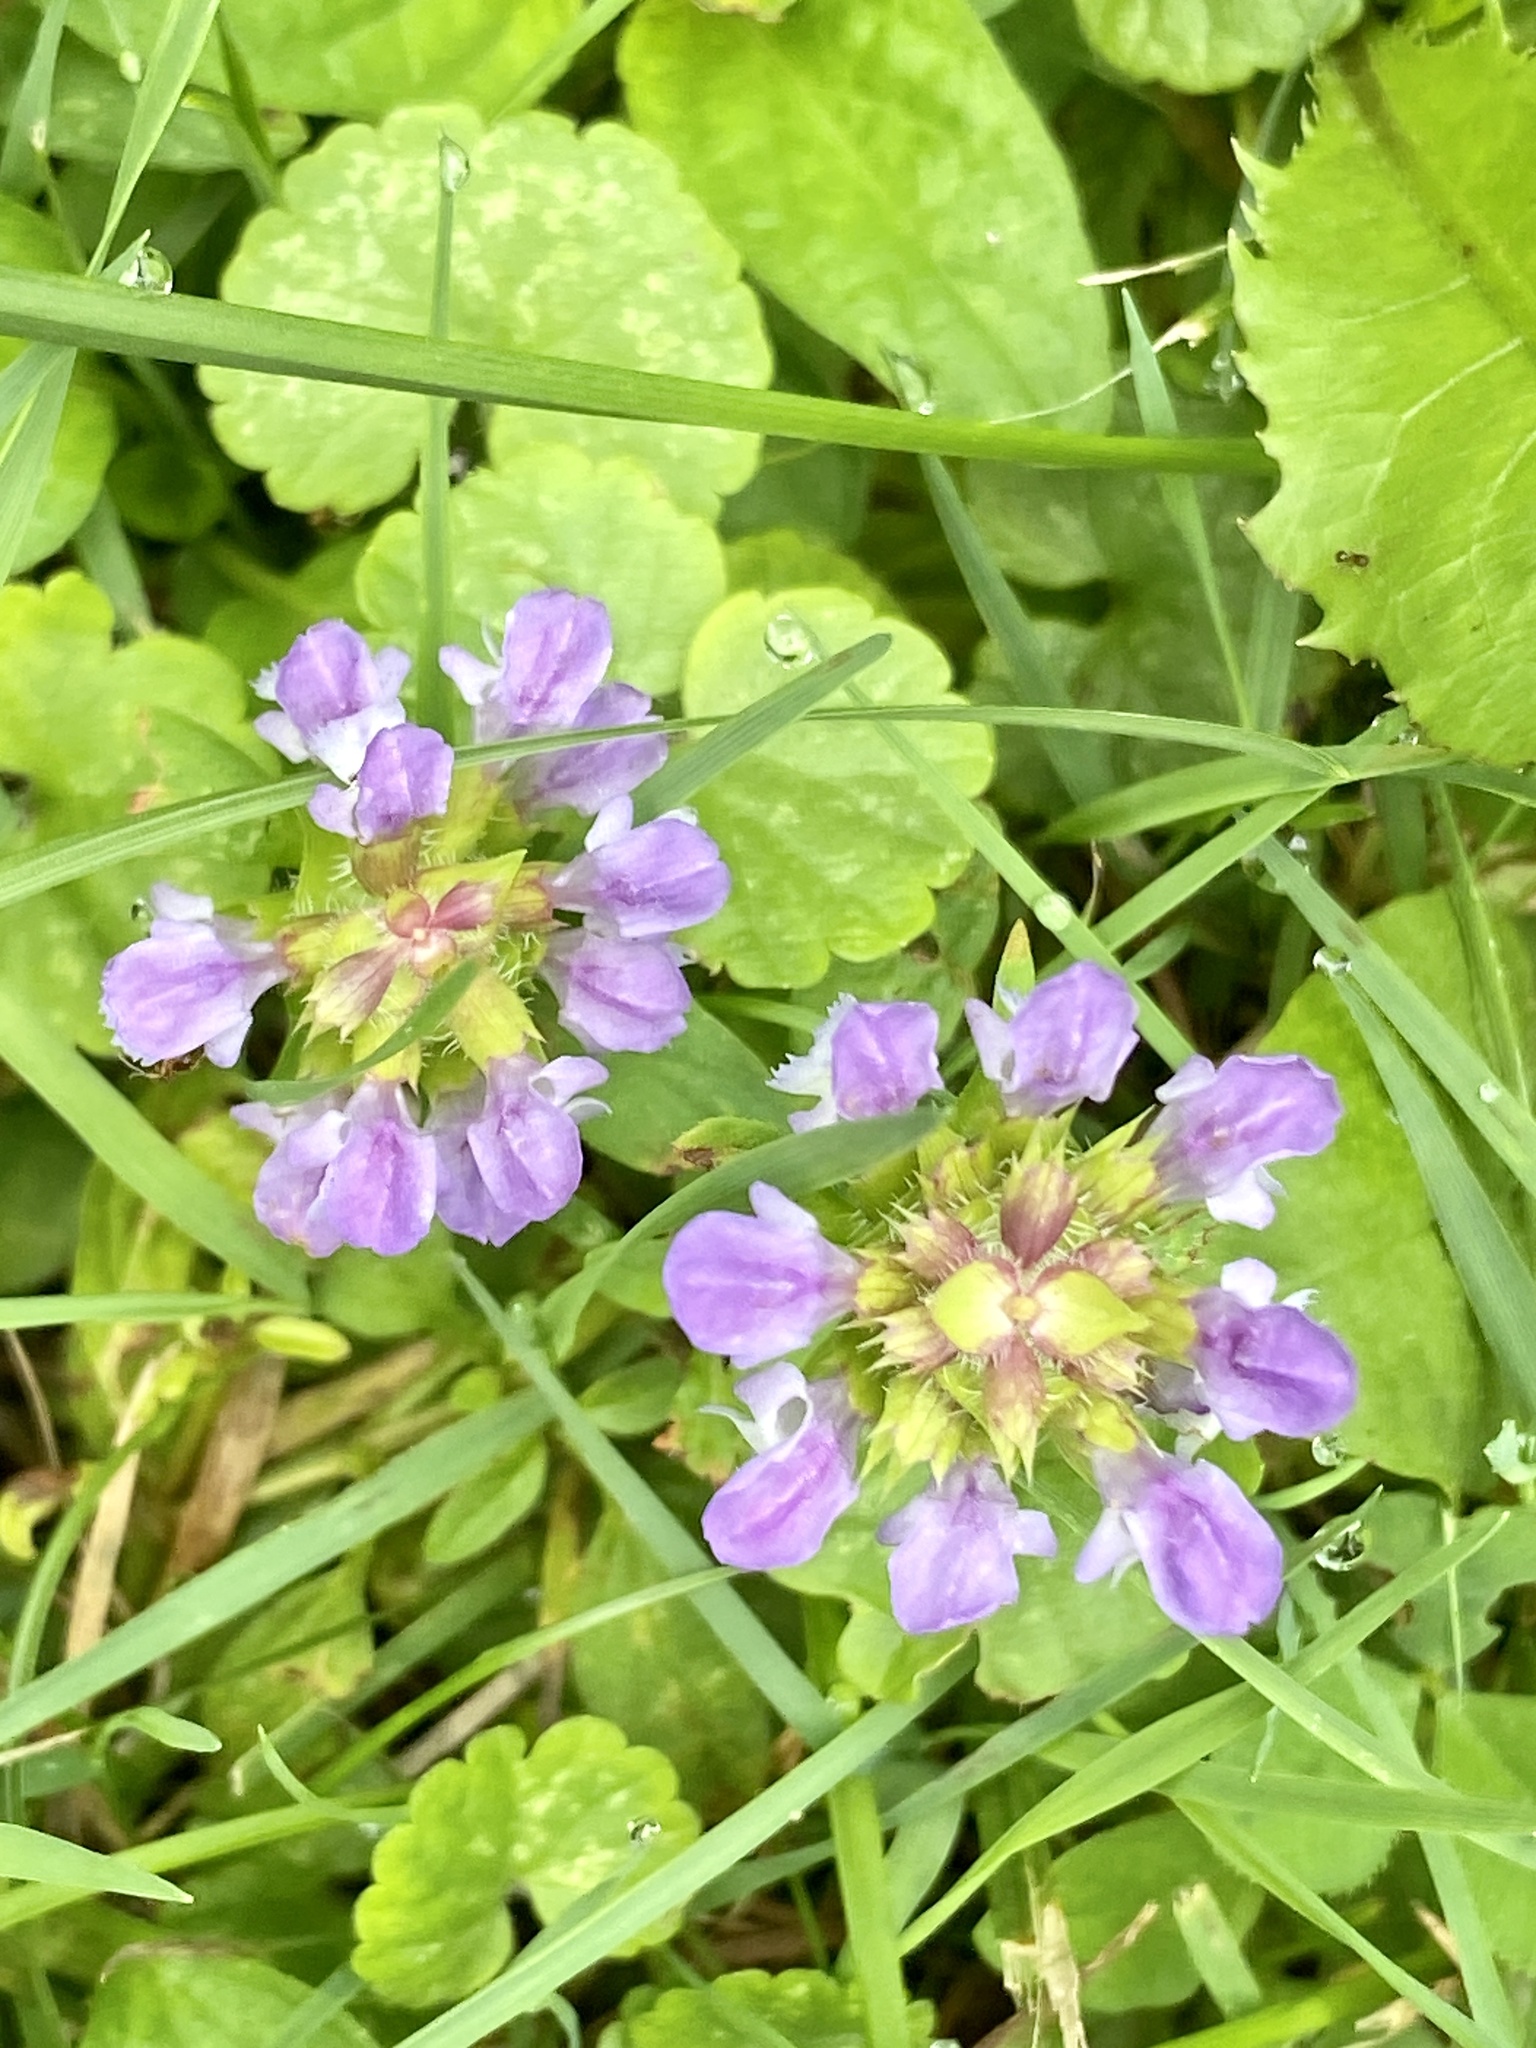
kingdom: Plantae
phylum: Tracheophyta
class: Magnoliopsida
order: Lamiales
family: Lamiaceae
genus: Prunella
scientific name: Prunella vulgaris
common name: Heal-all
